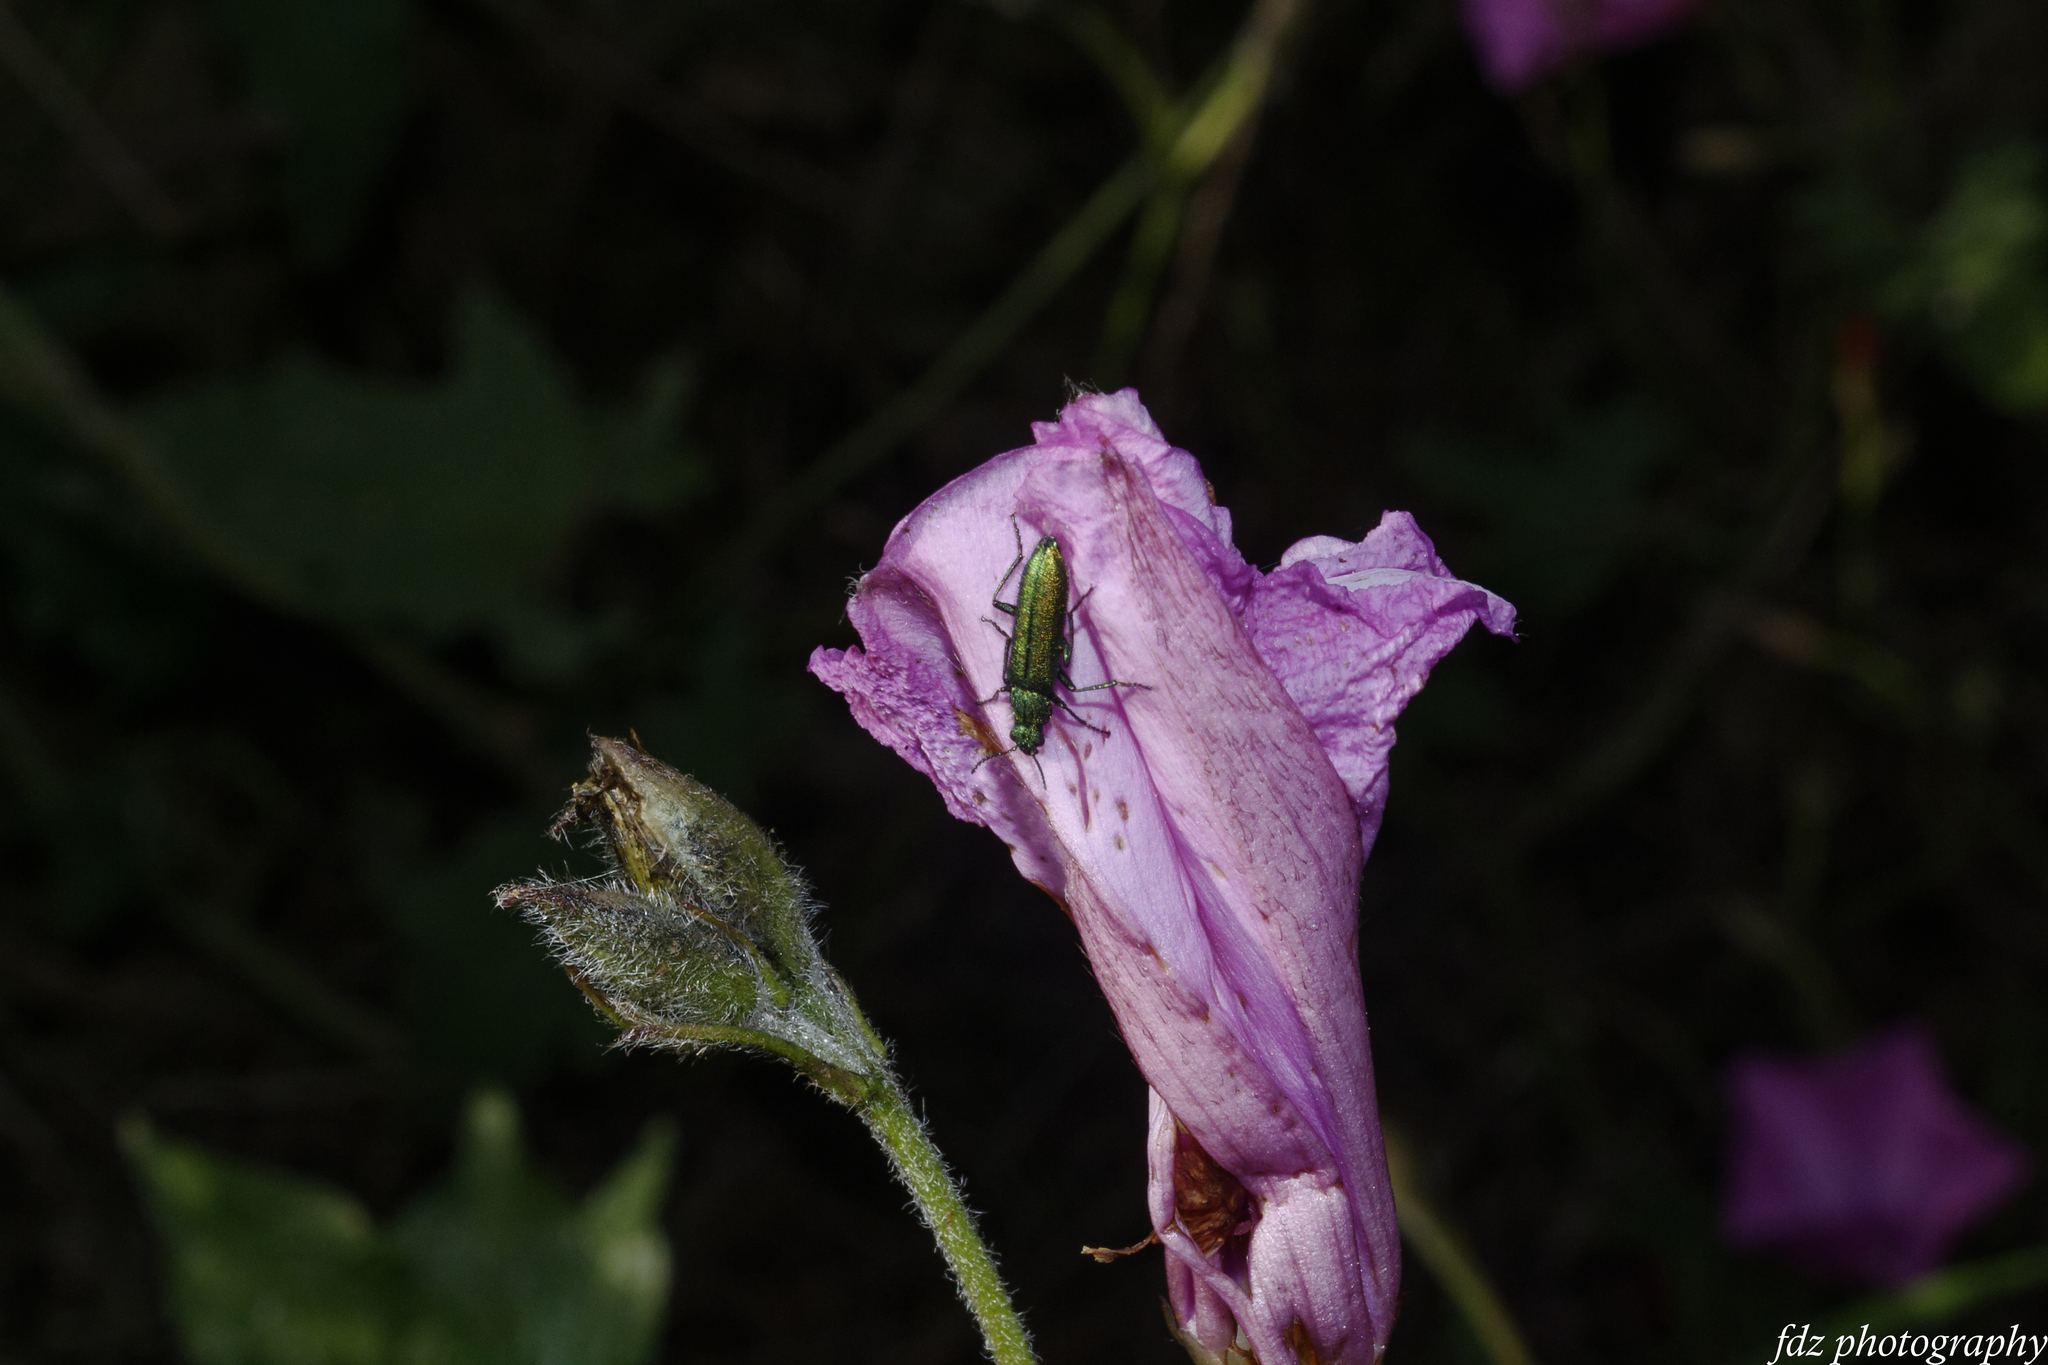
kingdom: Animalia
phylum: Arthropoda
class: Insecta
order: Coleoptera
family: Dasytidae
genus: Psilothrix
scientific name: Psilothrix viridicoerulea
